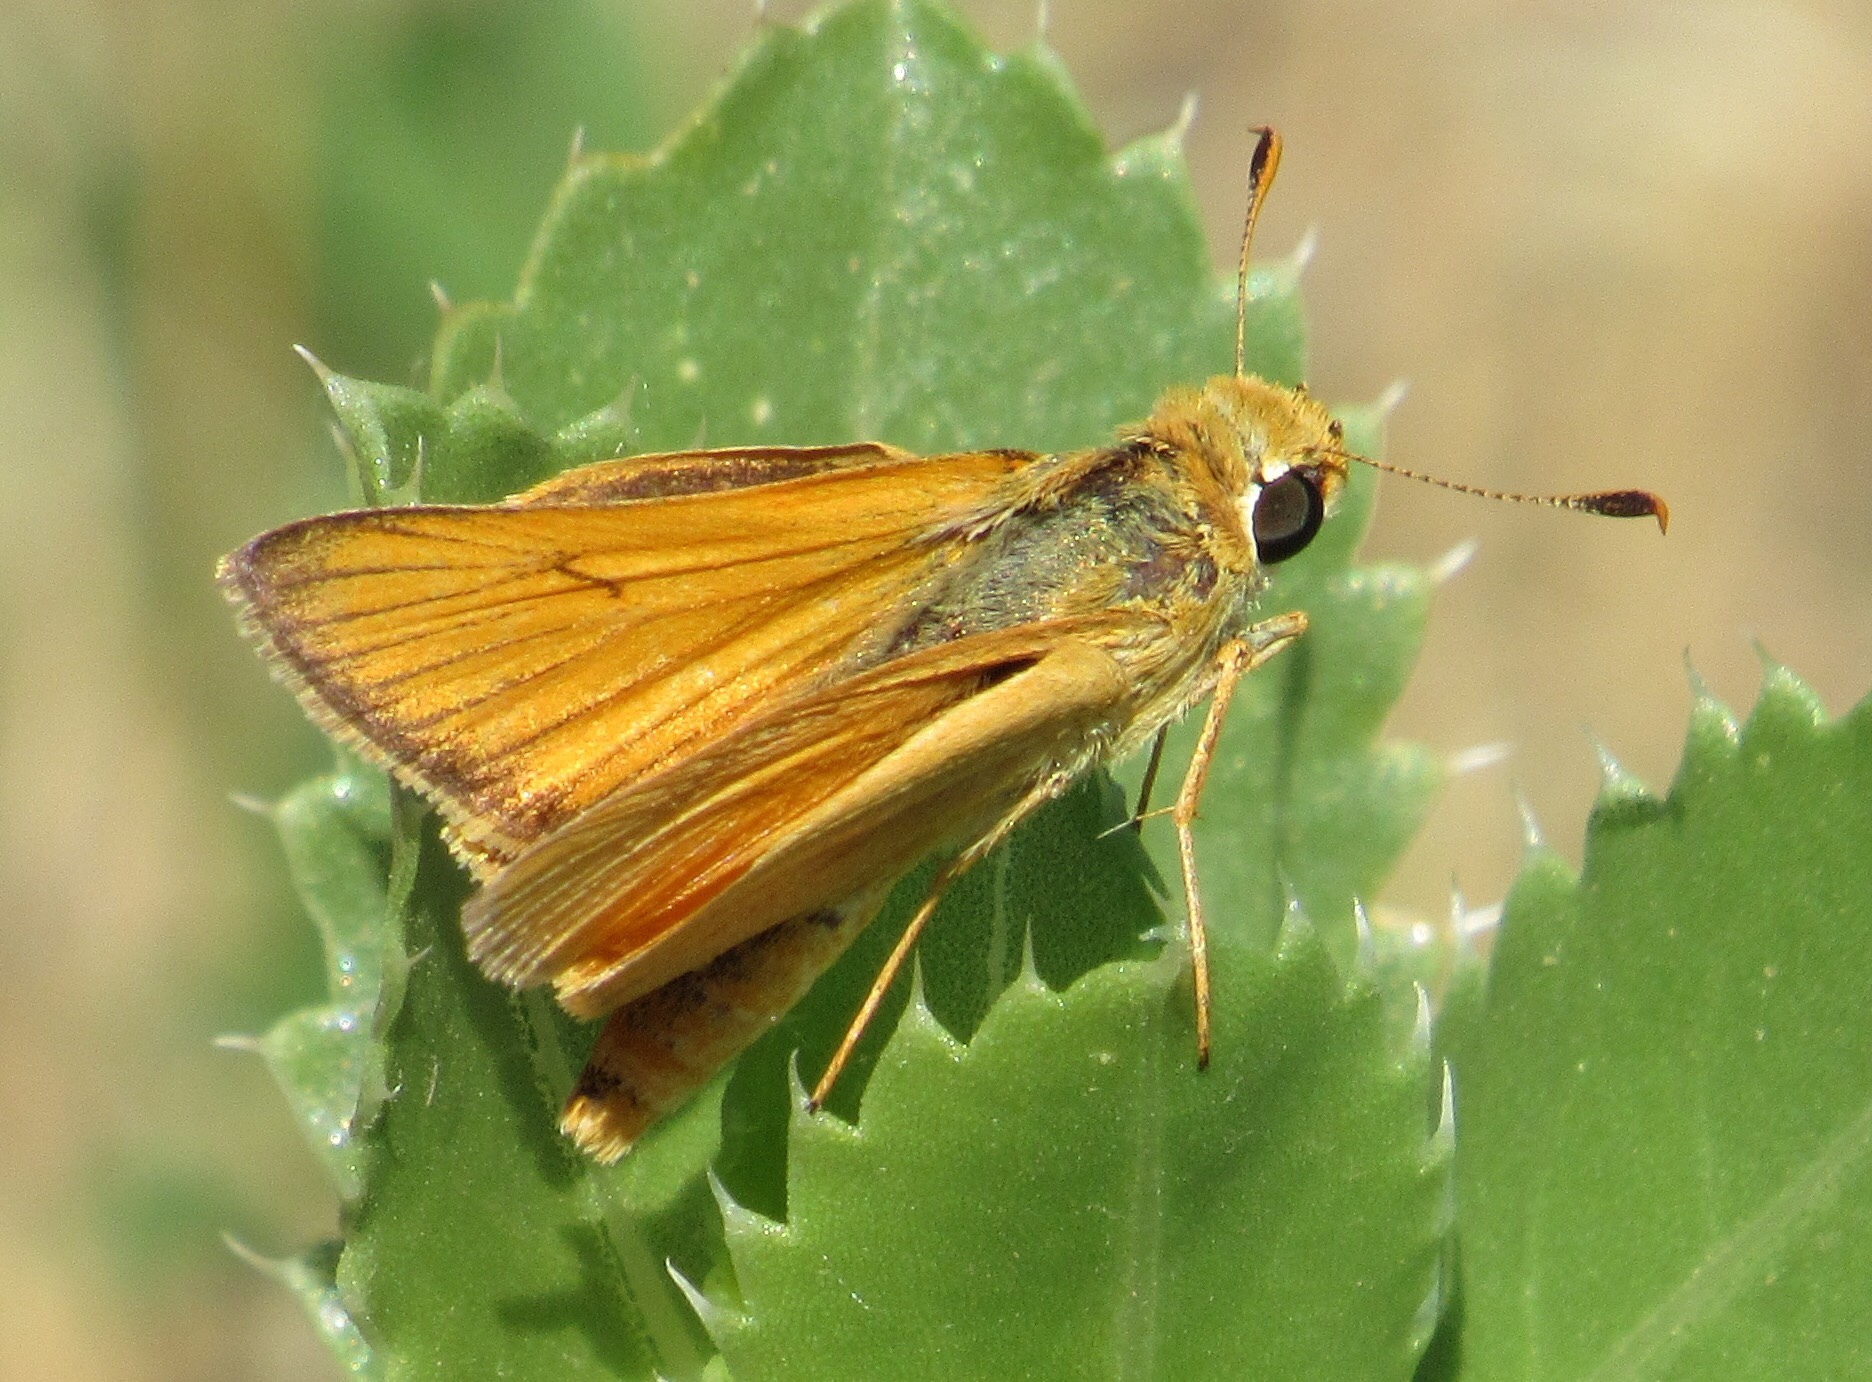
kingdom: Animalia
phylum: Arthropoda
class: Insecta
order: Lepidoptera
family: Hesperiidae
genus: Atrytone
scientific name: Atrytone delaware
